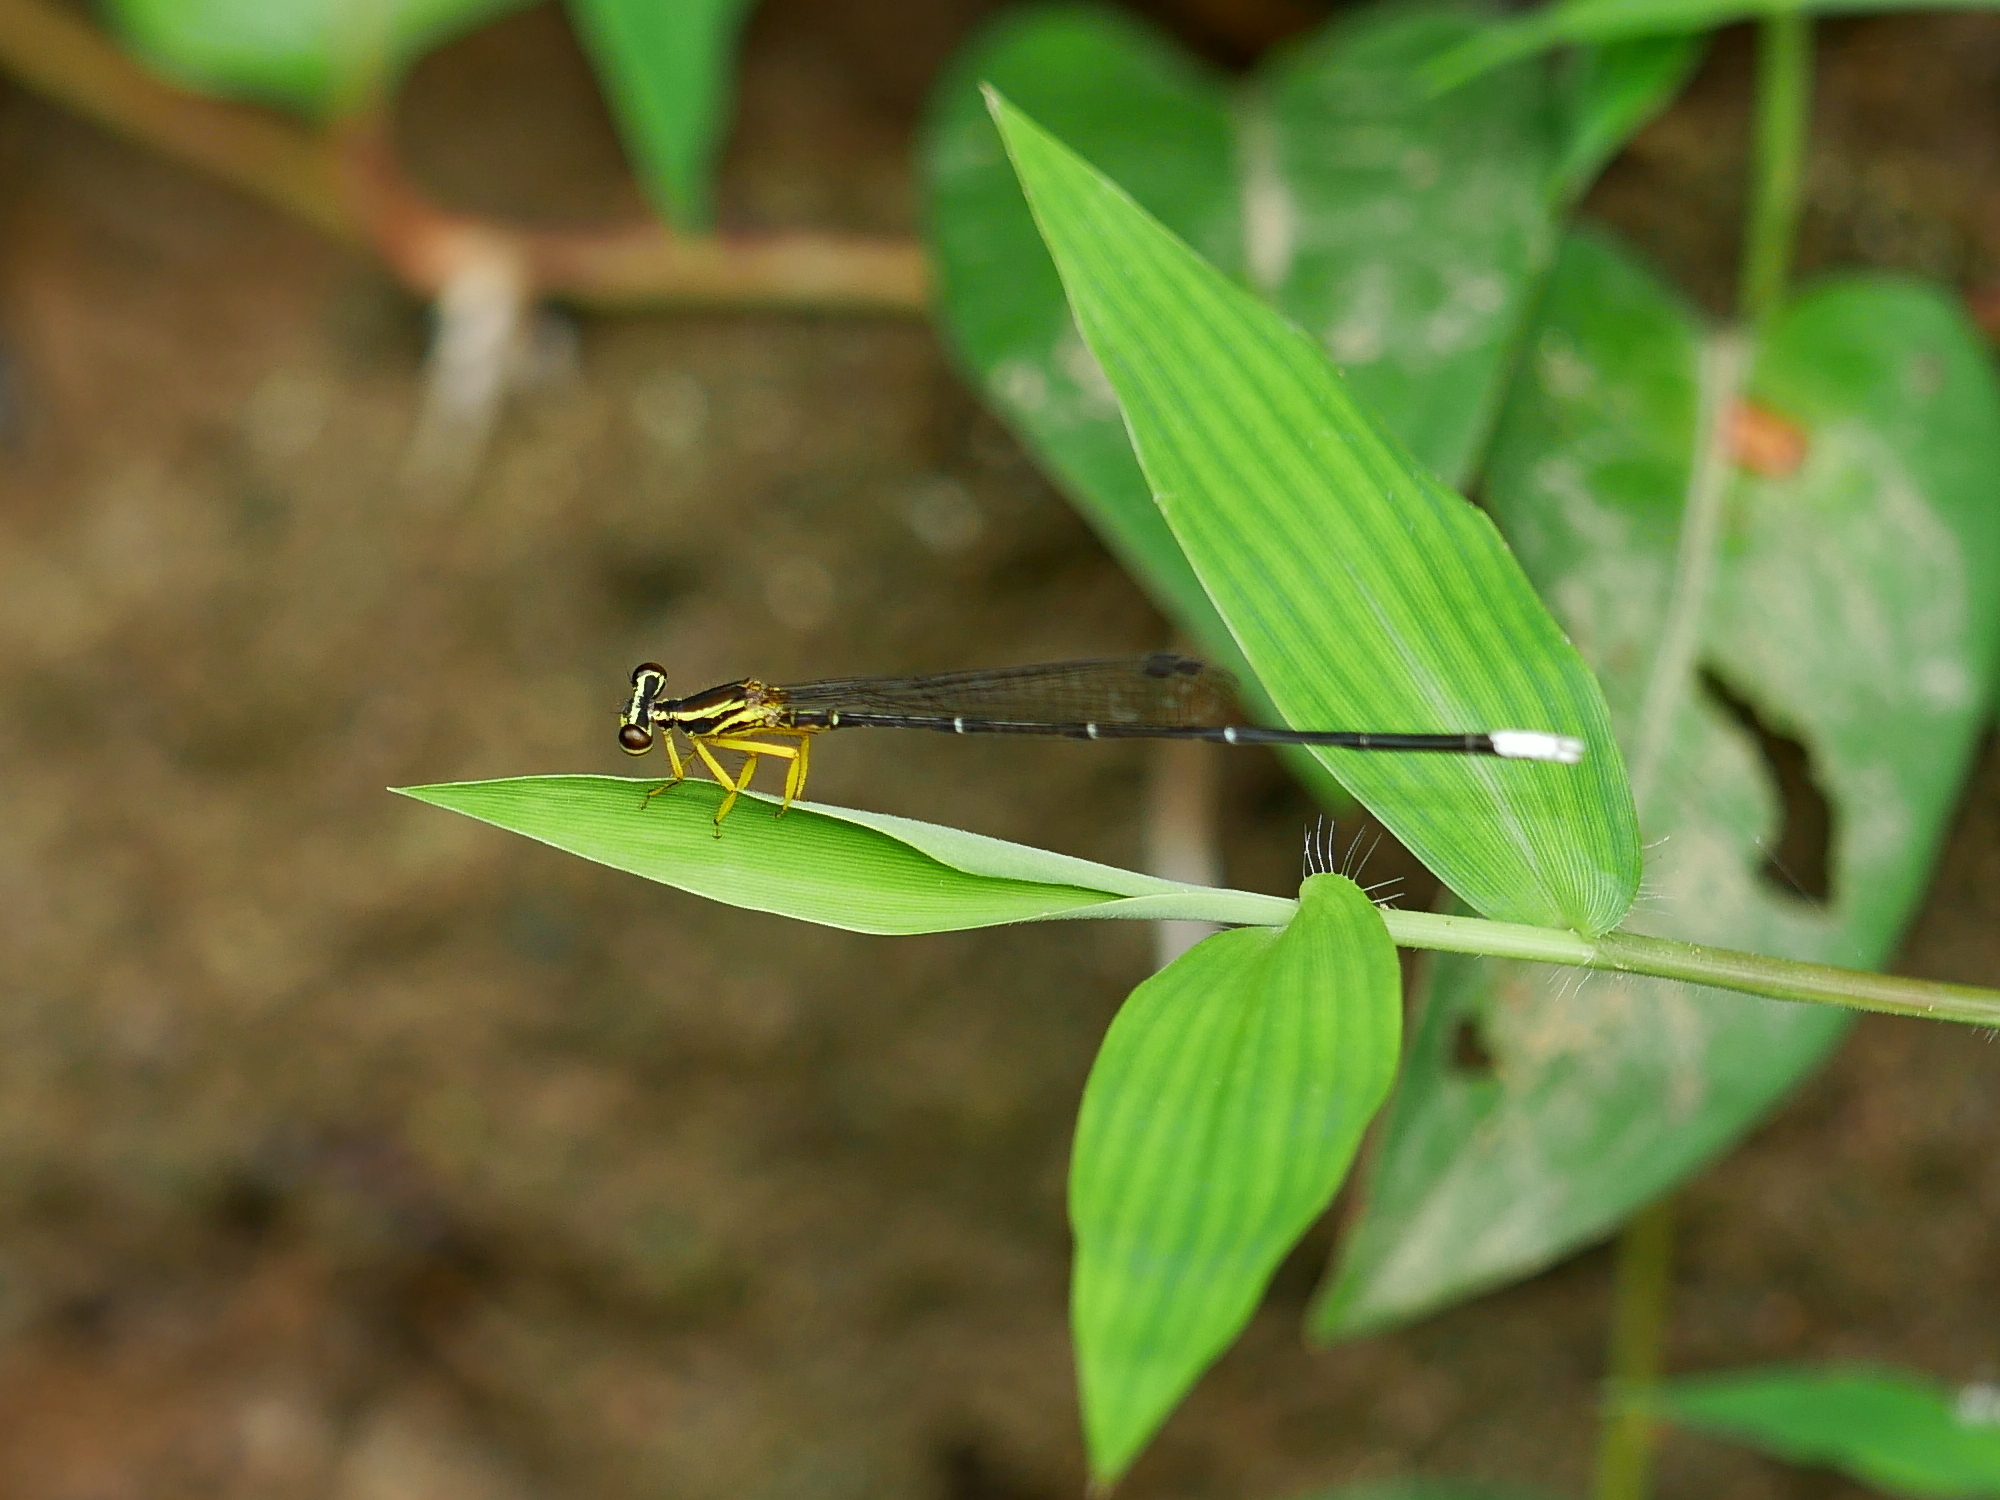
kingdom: Animalia
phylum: Arthropoda
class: Insecta
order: Odonata
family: Platycnemididae
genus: Copera
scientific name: Copera marginipes
